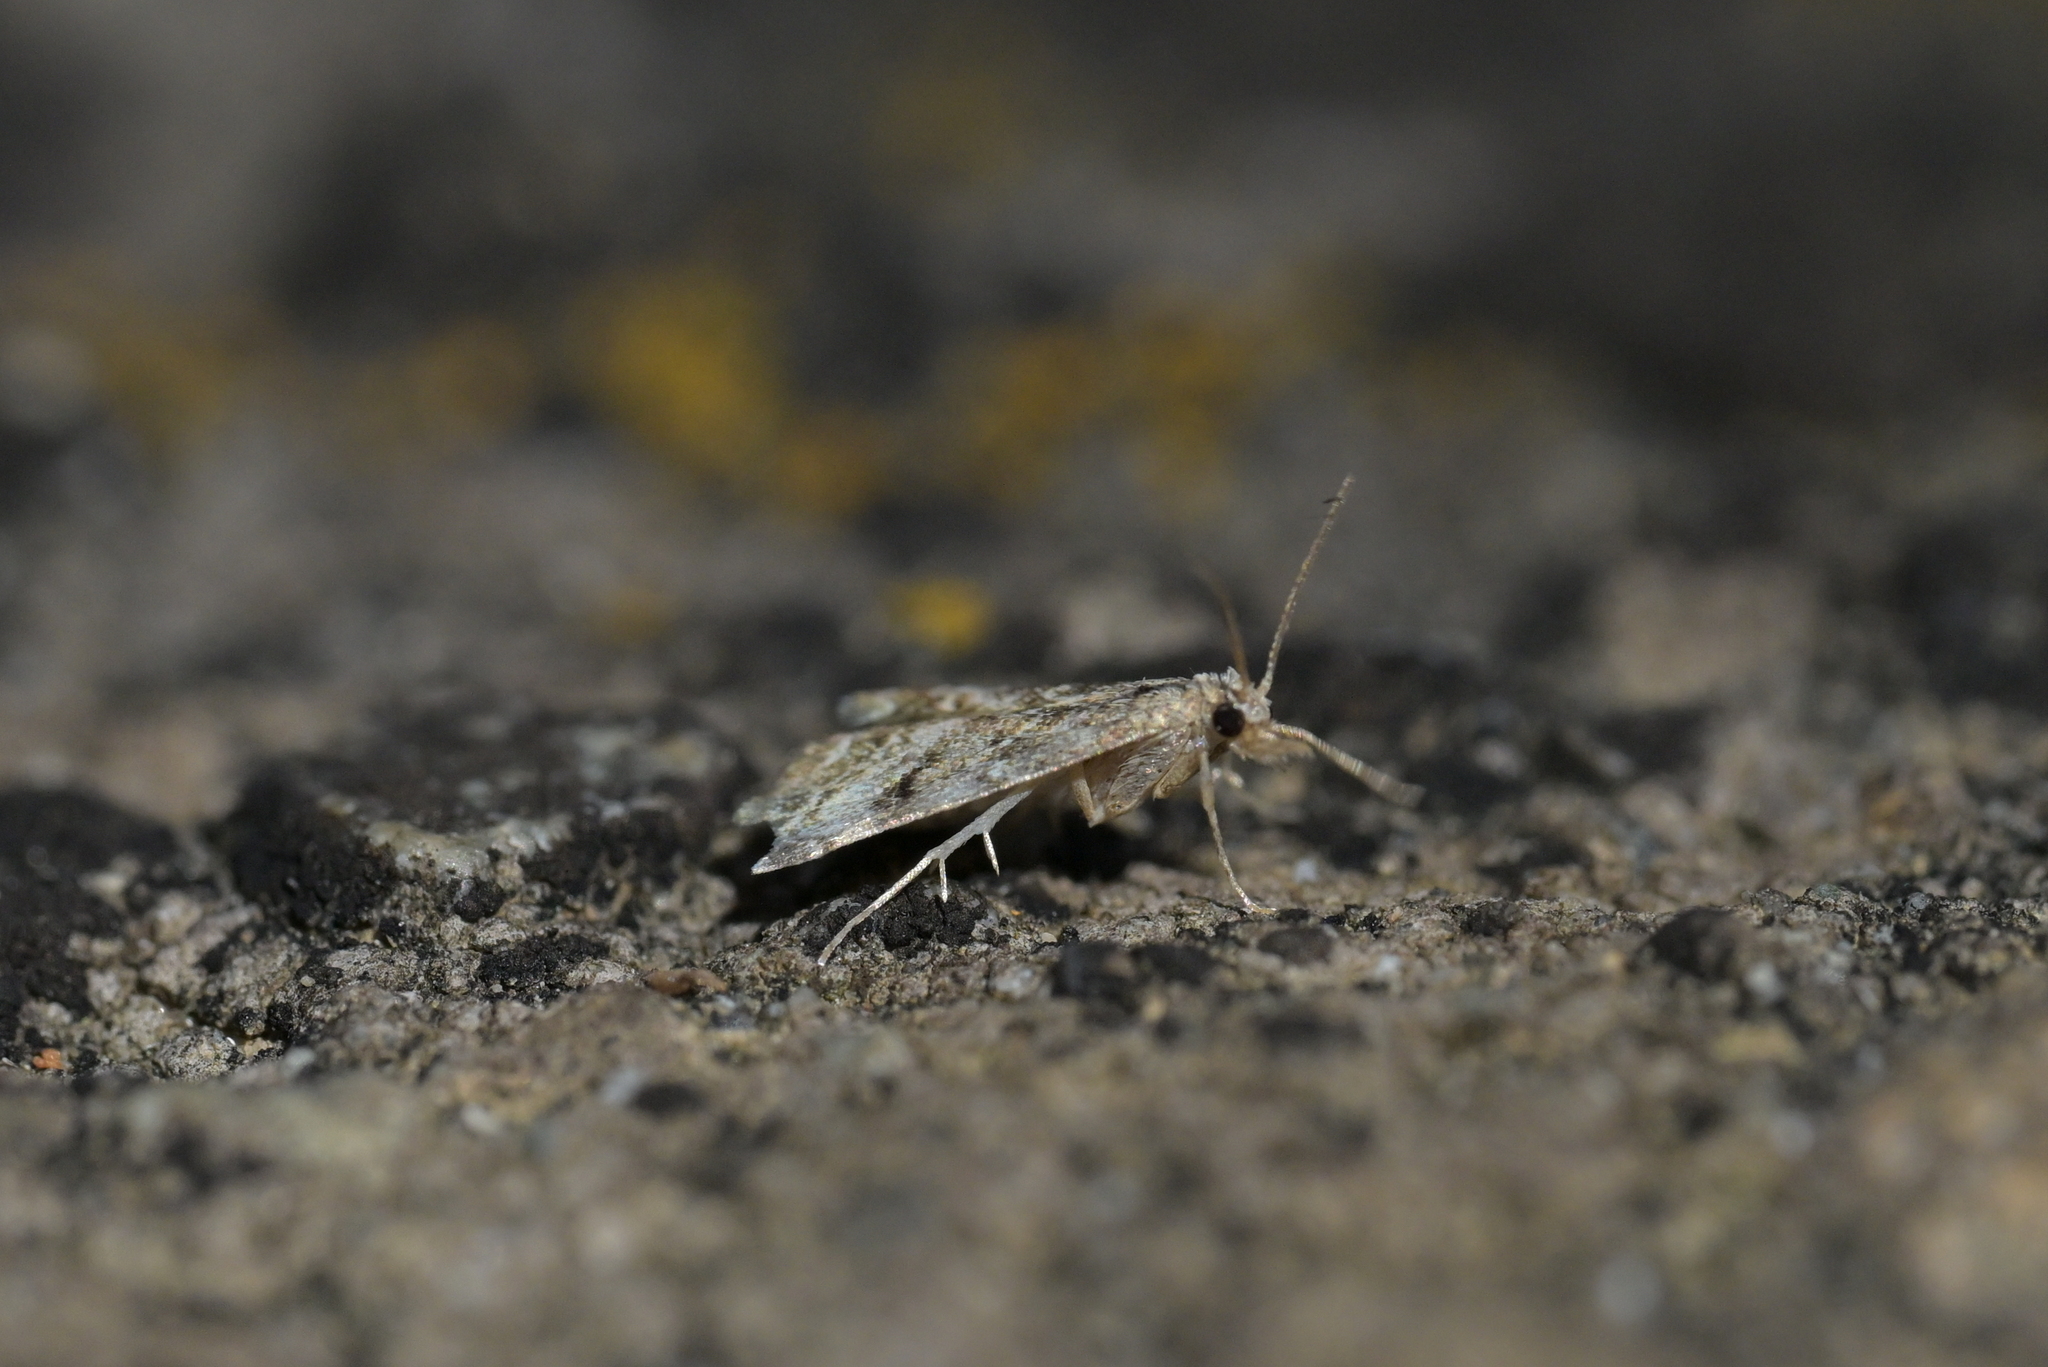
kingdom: Animalia
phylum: Arthropoda
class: Insecta
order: Lepidoptera
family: Crambidae
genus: Glaucocharis
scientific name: Glaucocharis elaina
